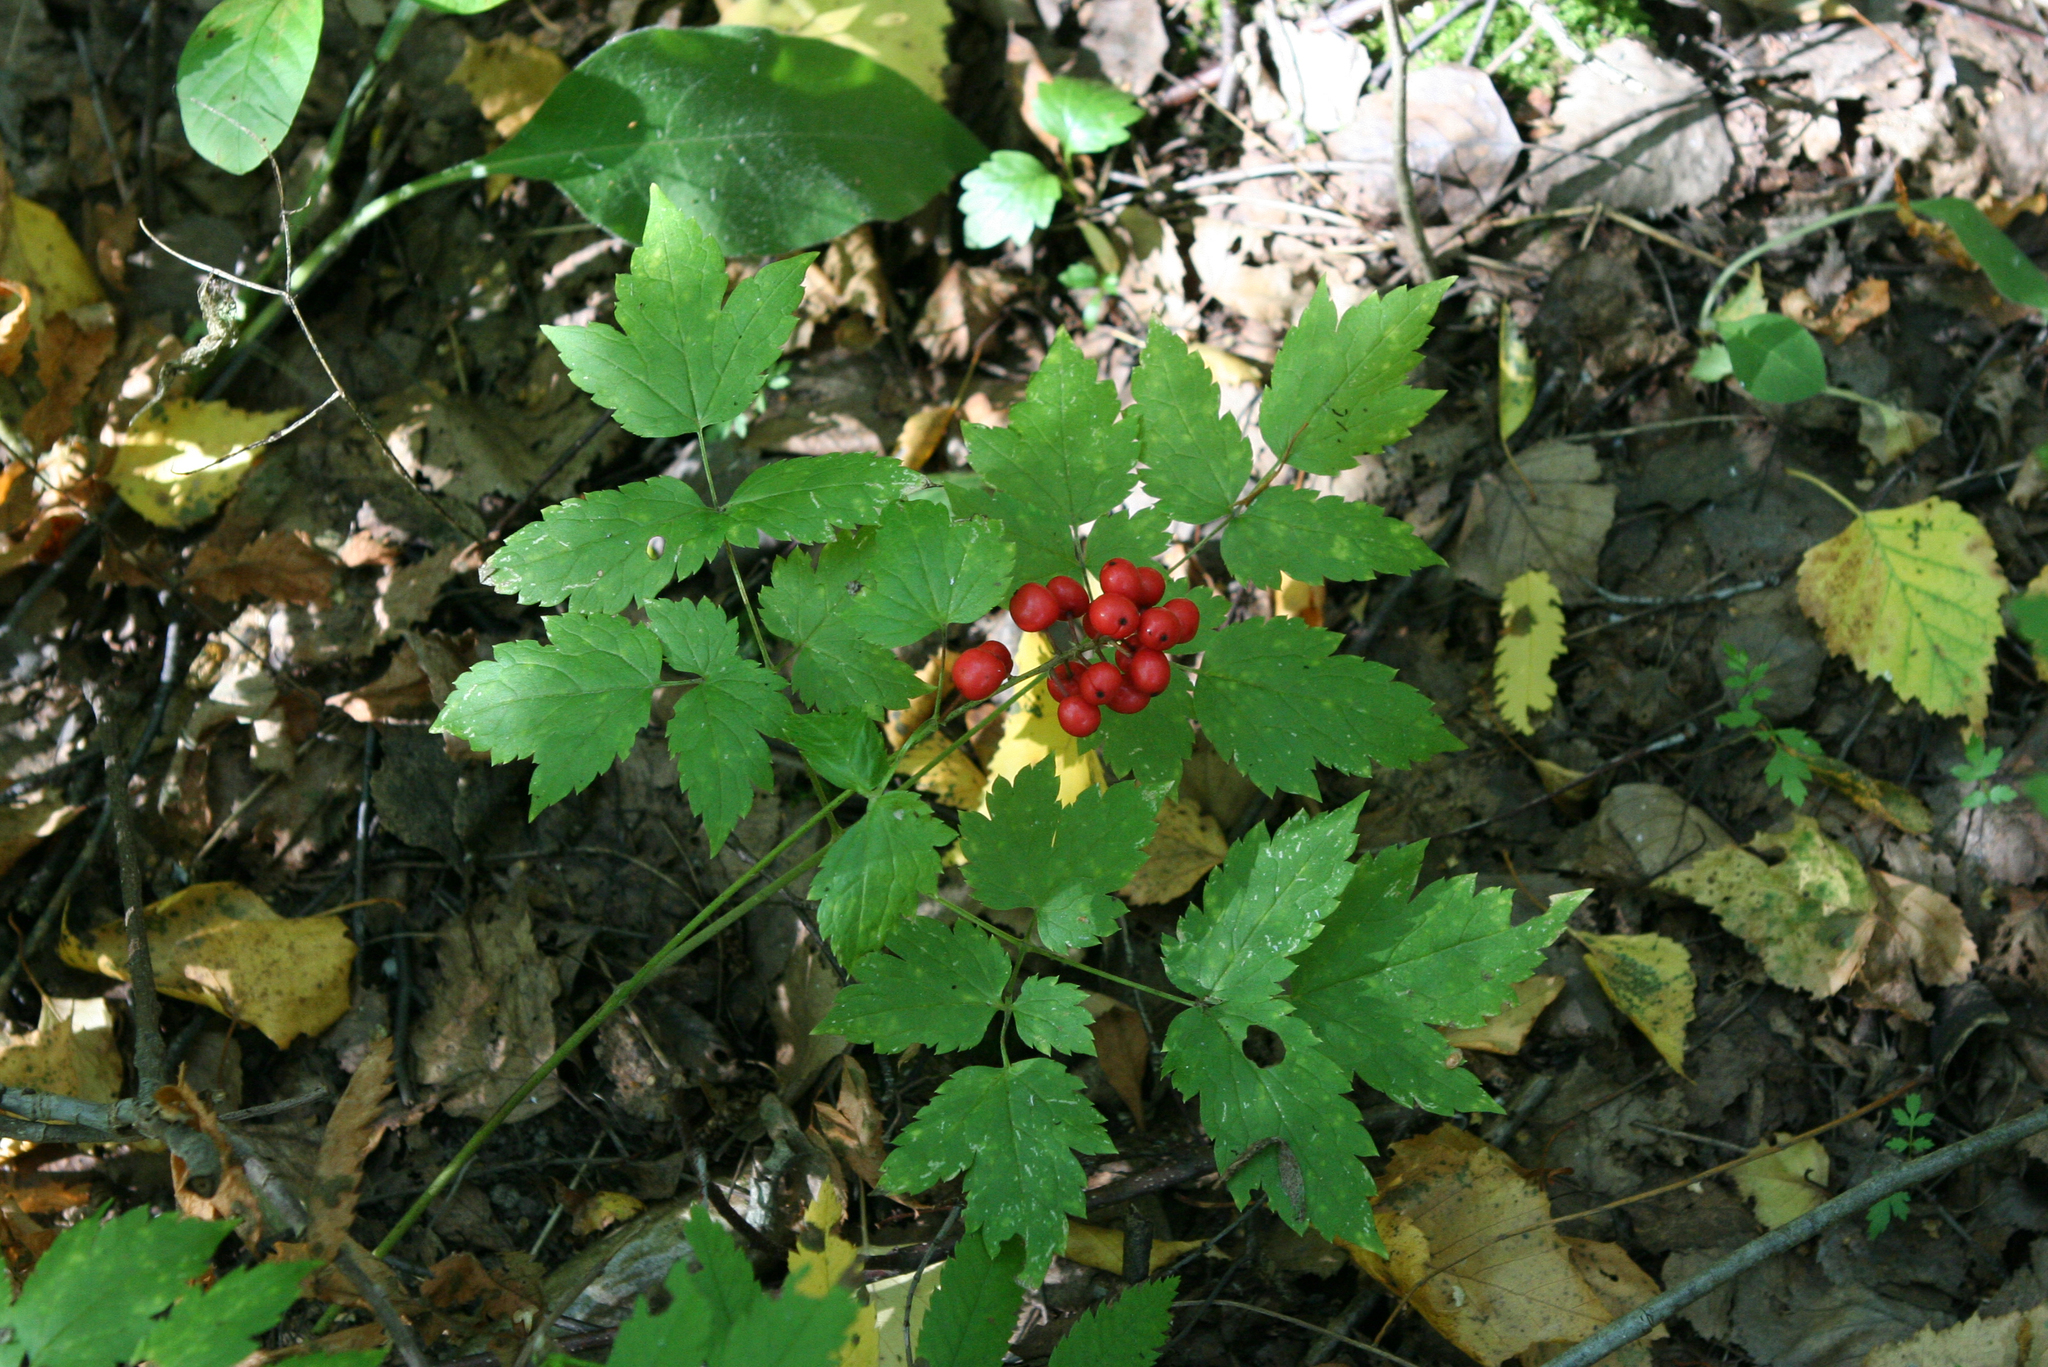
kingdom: Plantae
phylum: Tracheophyta
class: Magnoliopsida
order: Ranunculales
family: Ranunculaceae
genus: Actaea
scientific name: Actaea erythrocarpa
